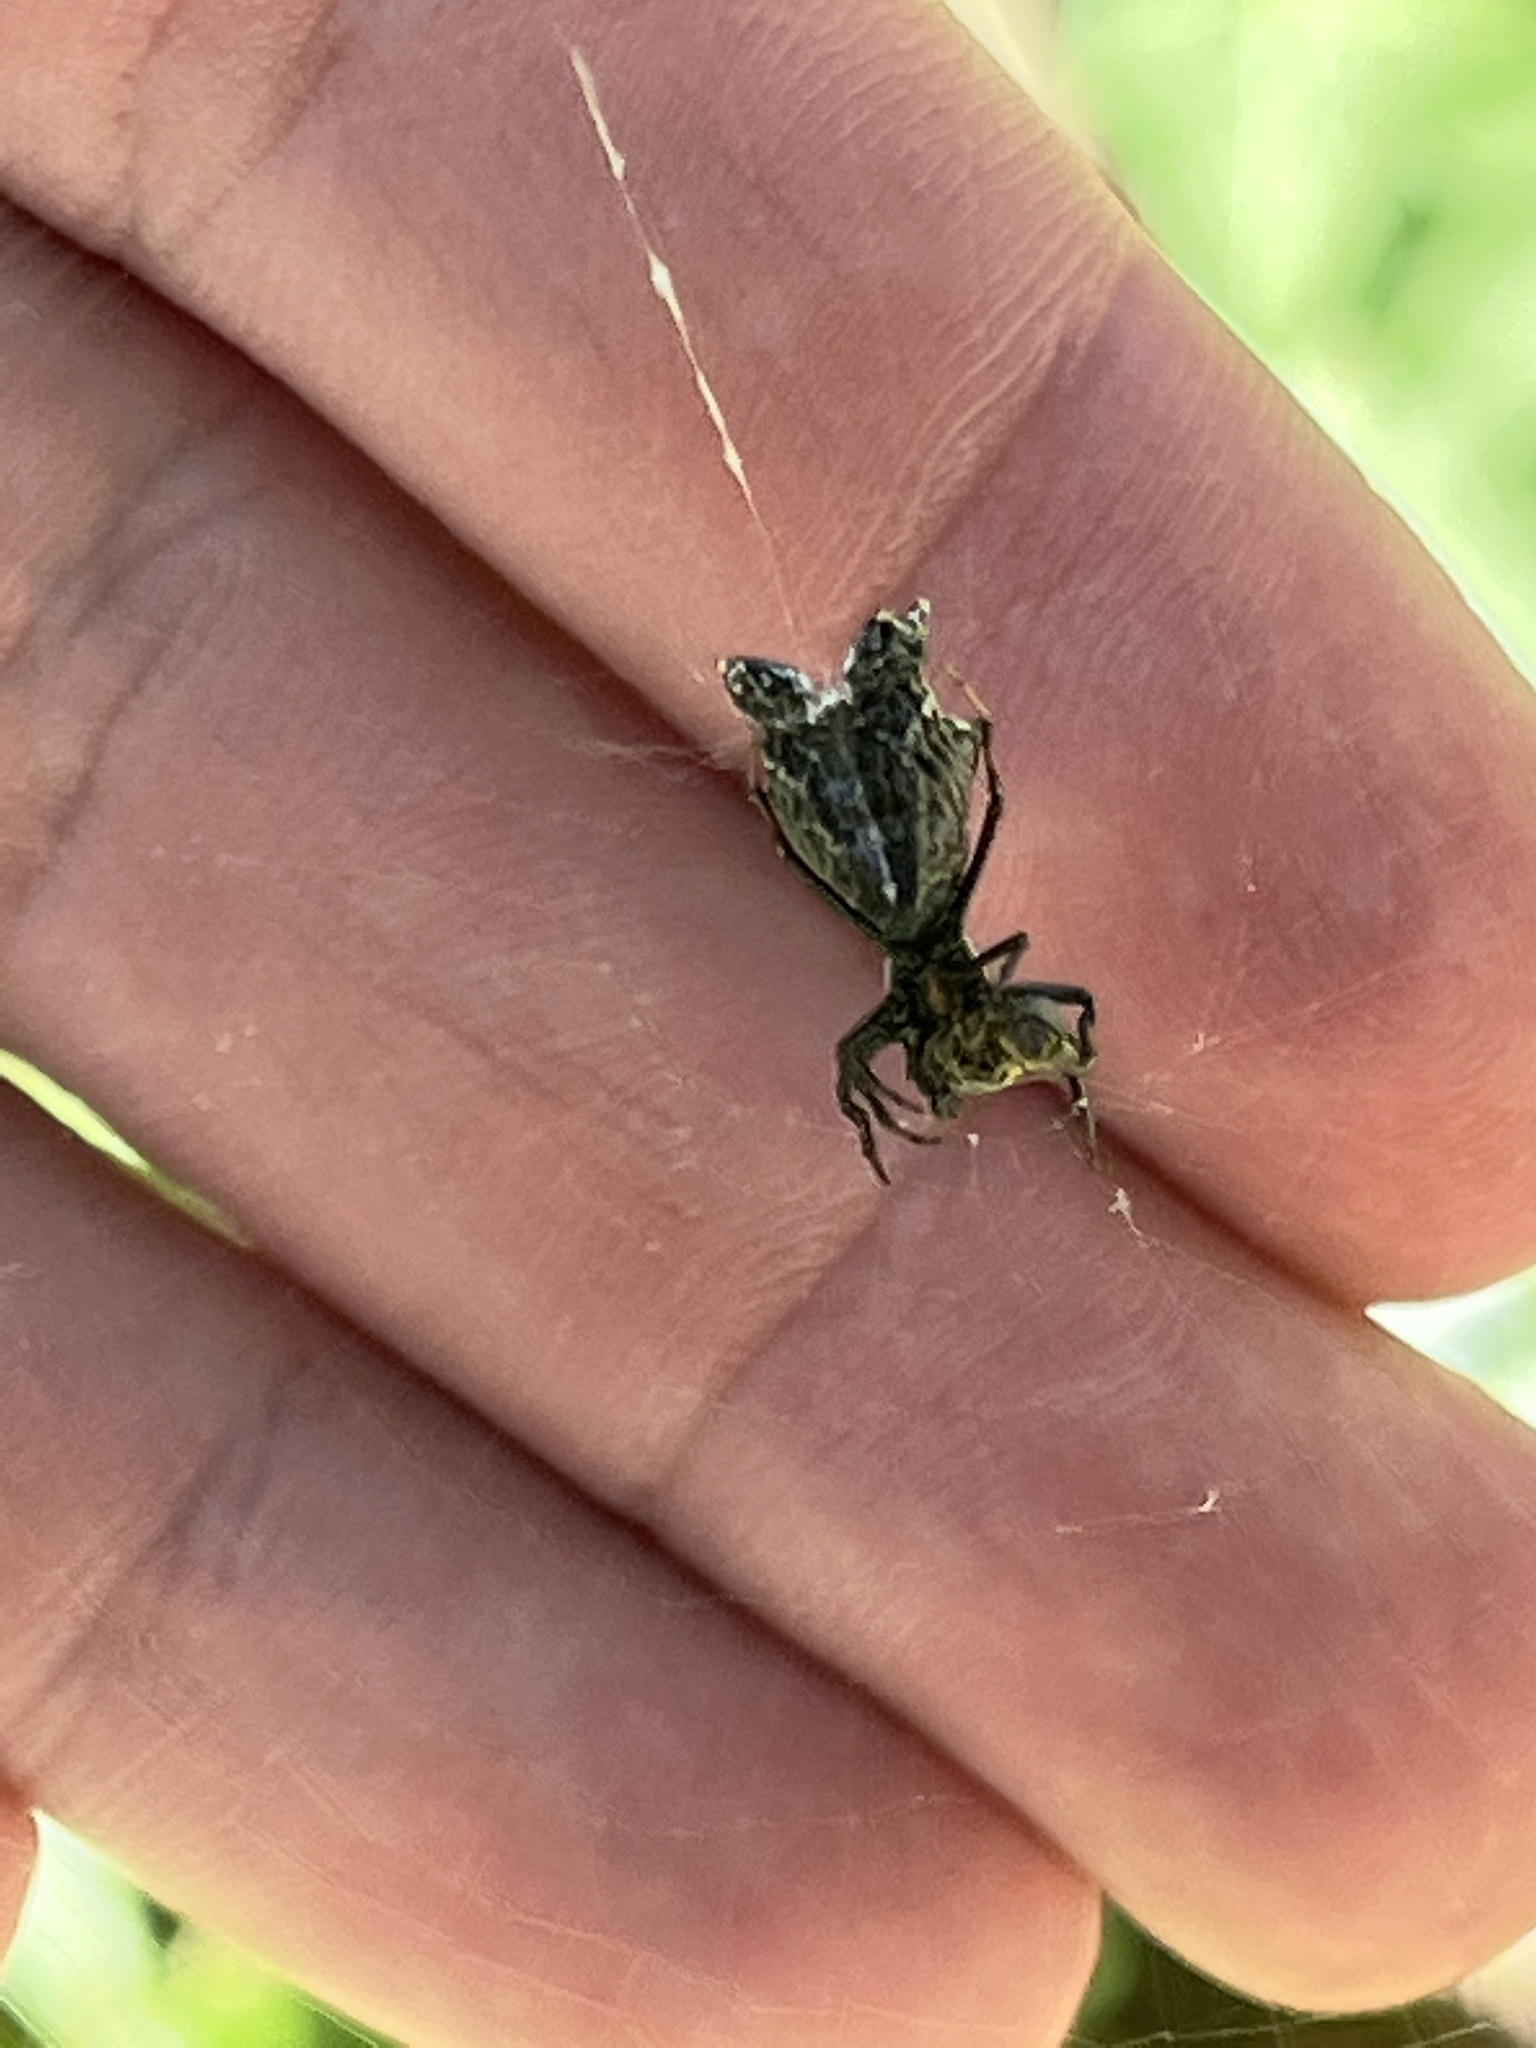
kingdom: Animalia
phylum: Arthropoda
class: Arachnida
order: Araneae
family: Araneidae
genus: Micrathena
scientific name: Micrathena gracilis
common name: Orb weavers
